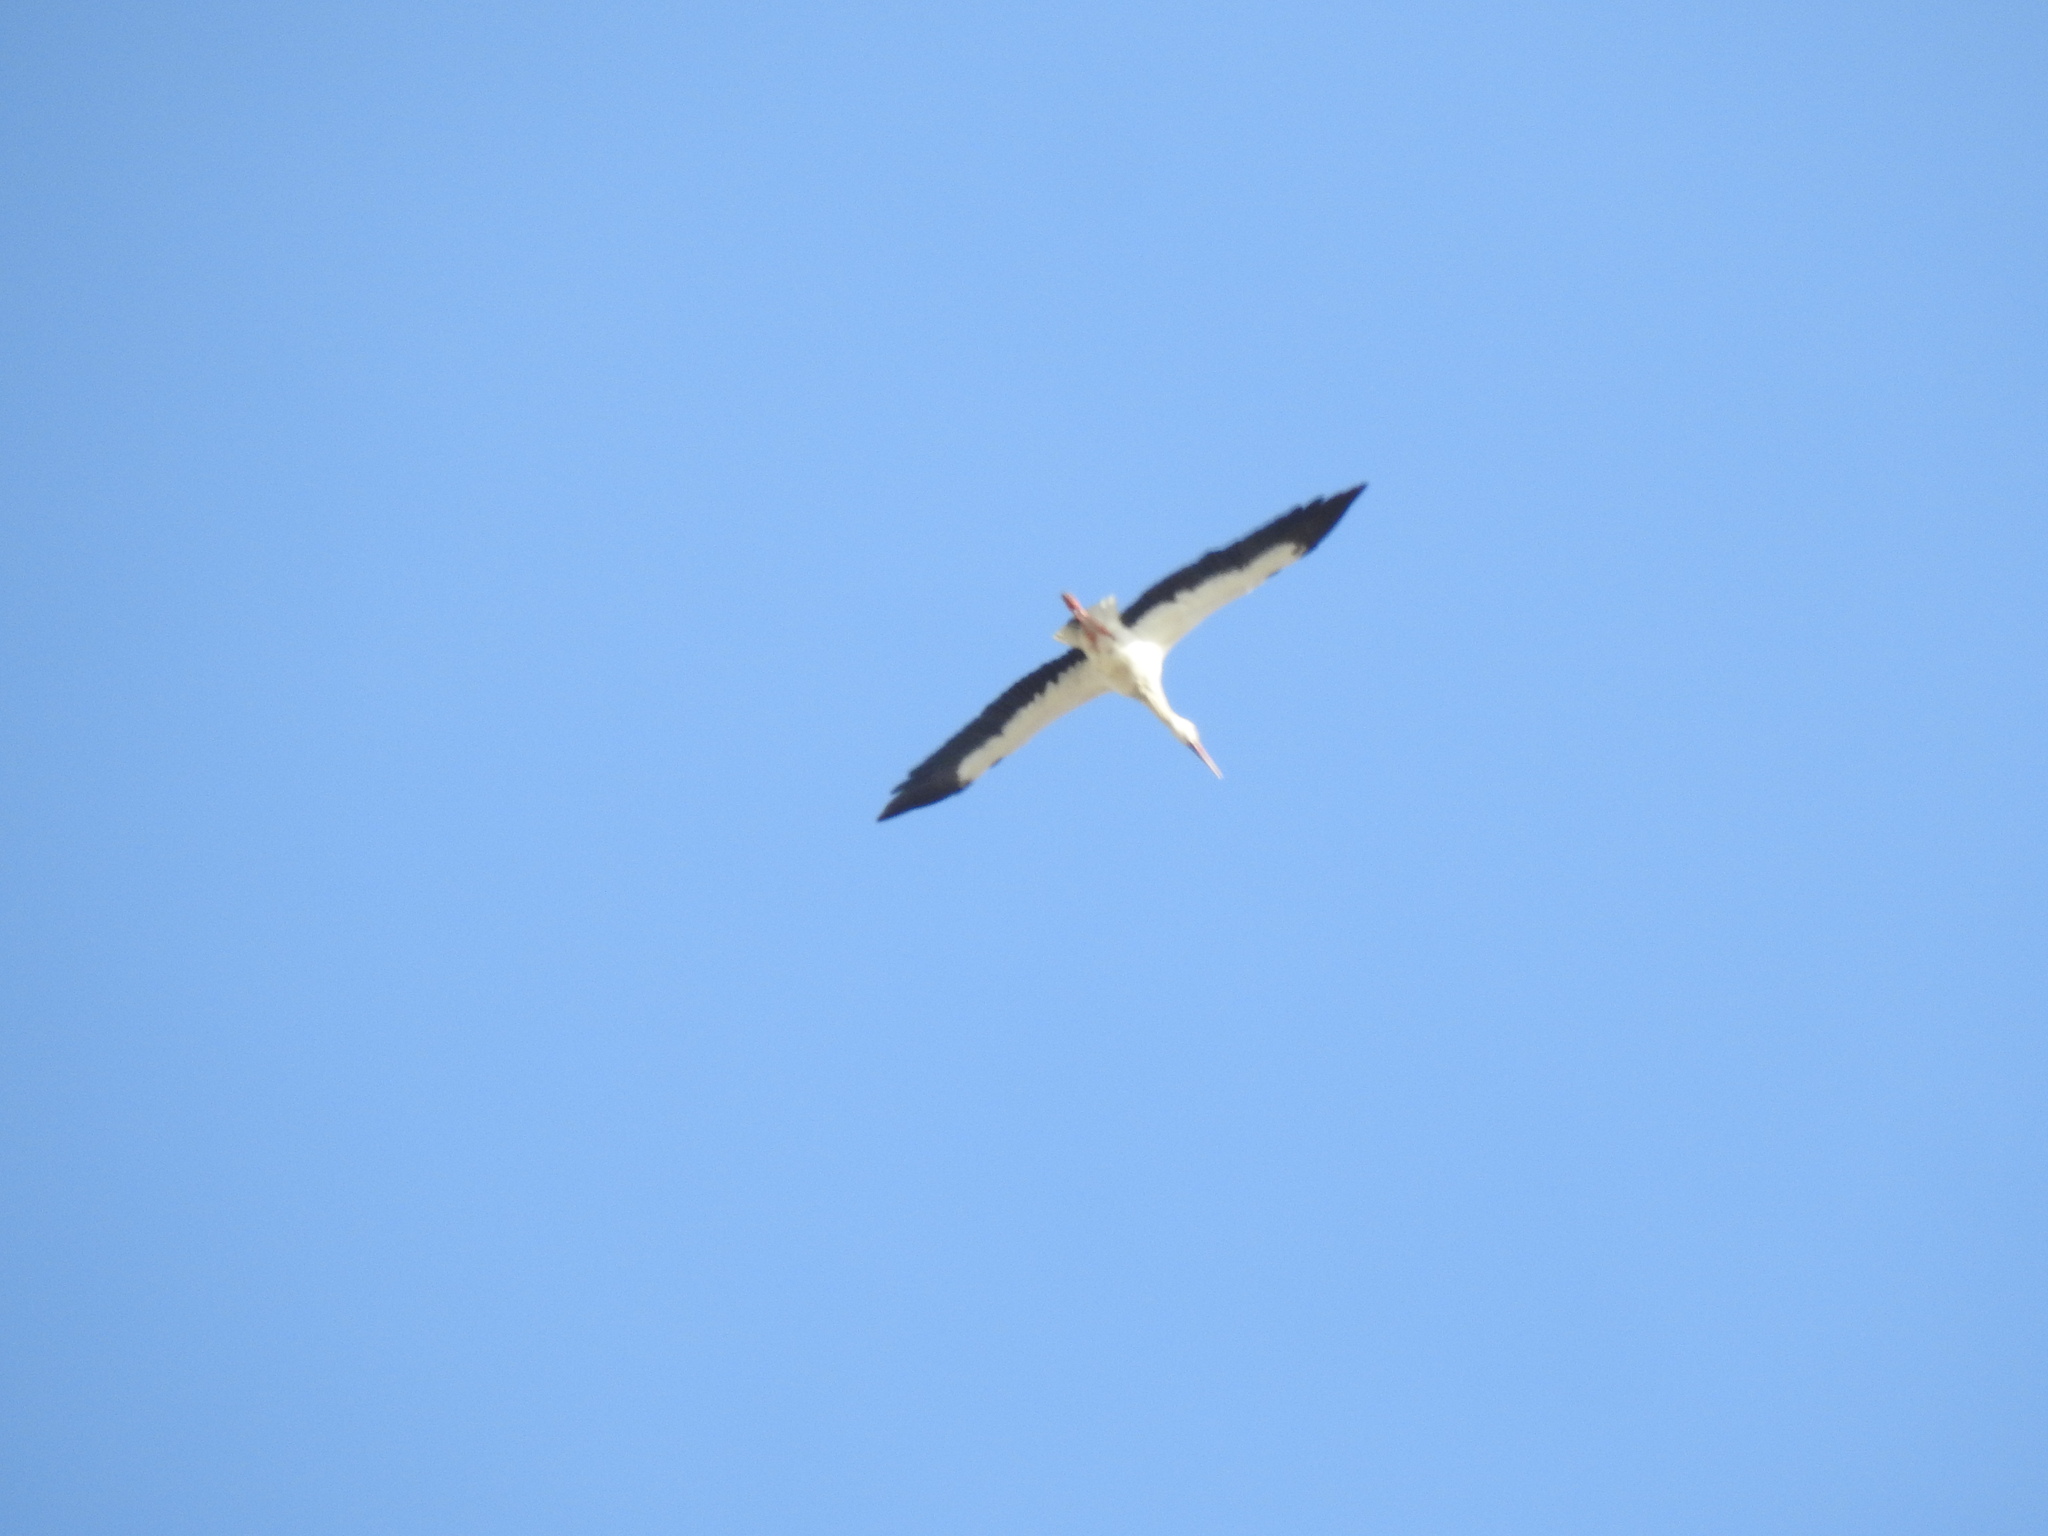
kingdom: Animalia
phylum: Chordata
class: Aves
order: Ciconiiformes
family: Ciconiidae
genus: Ciconia
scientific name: Ciconia ciconia
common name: White stork
